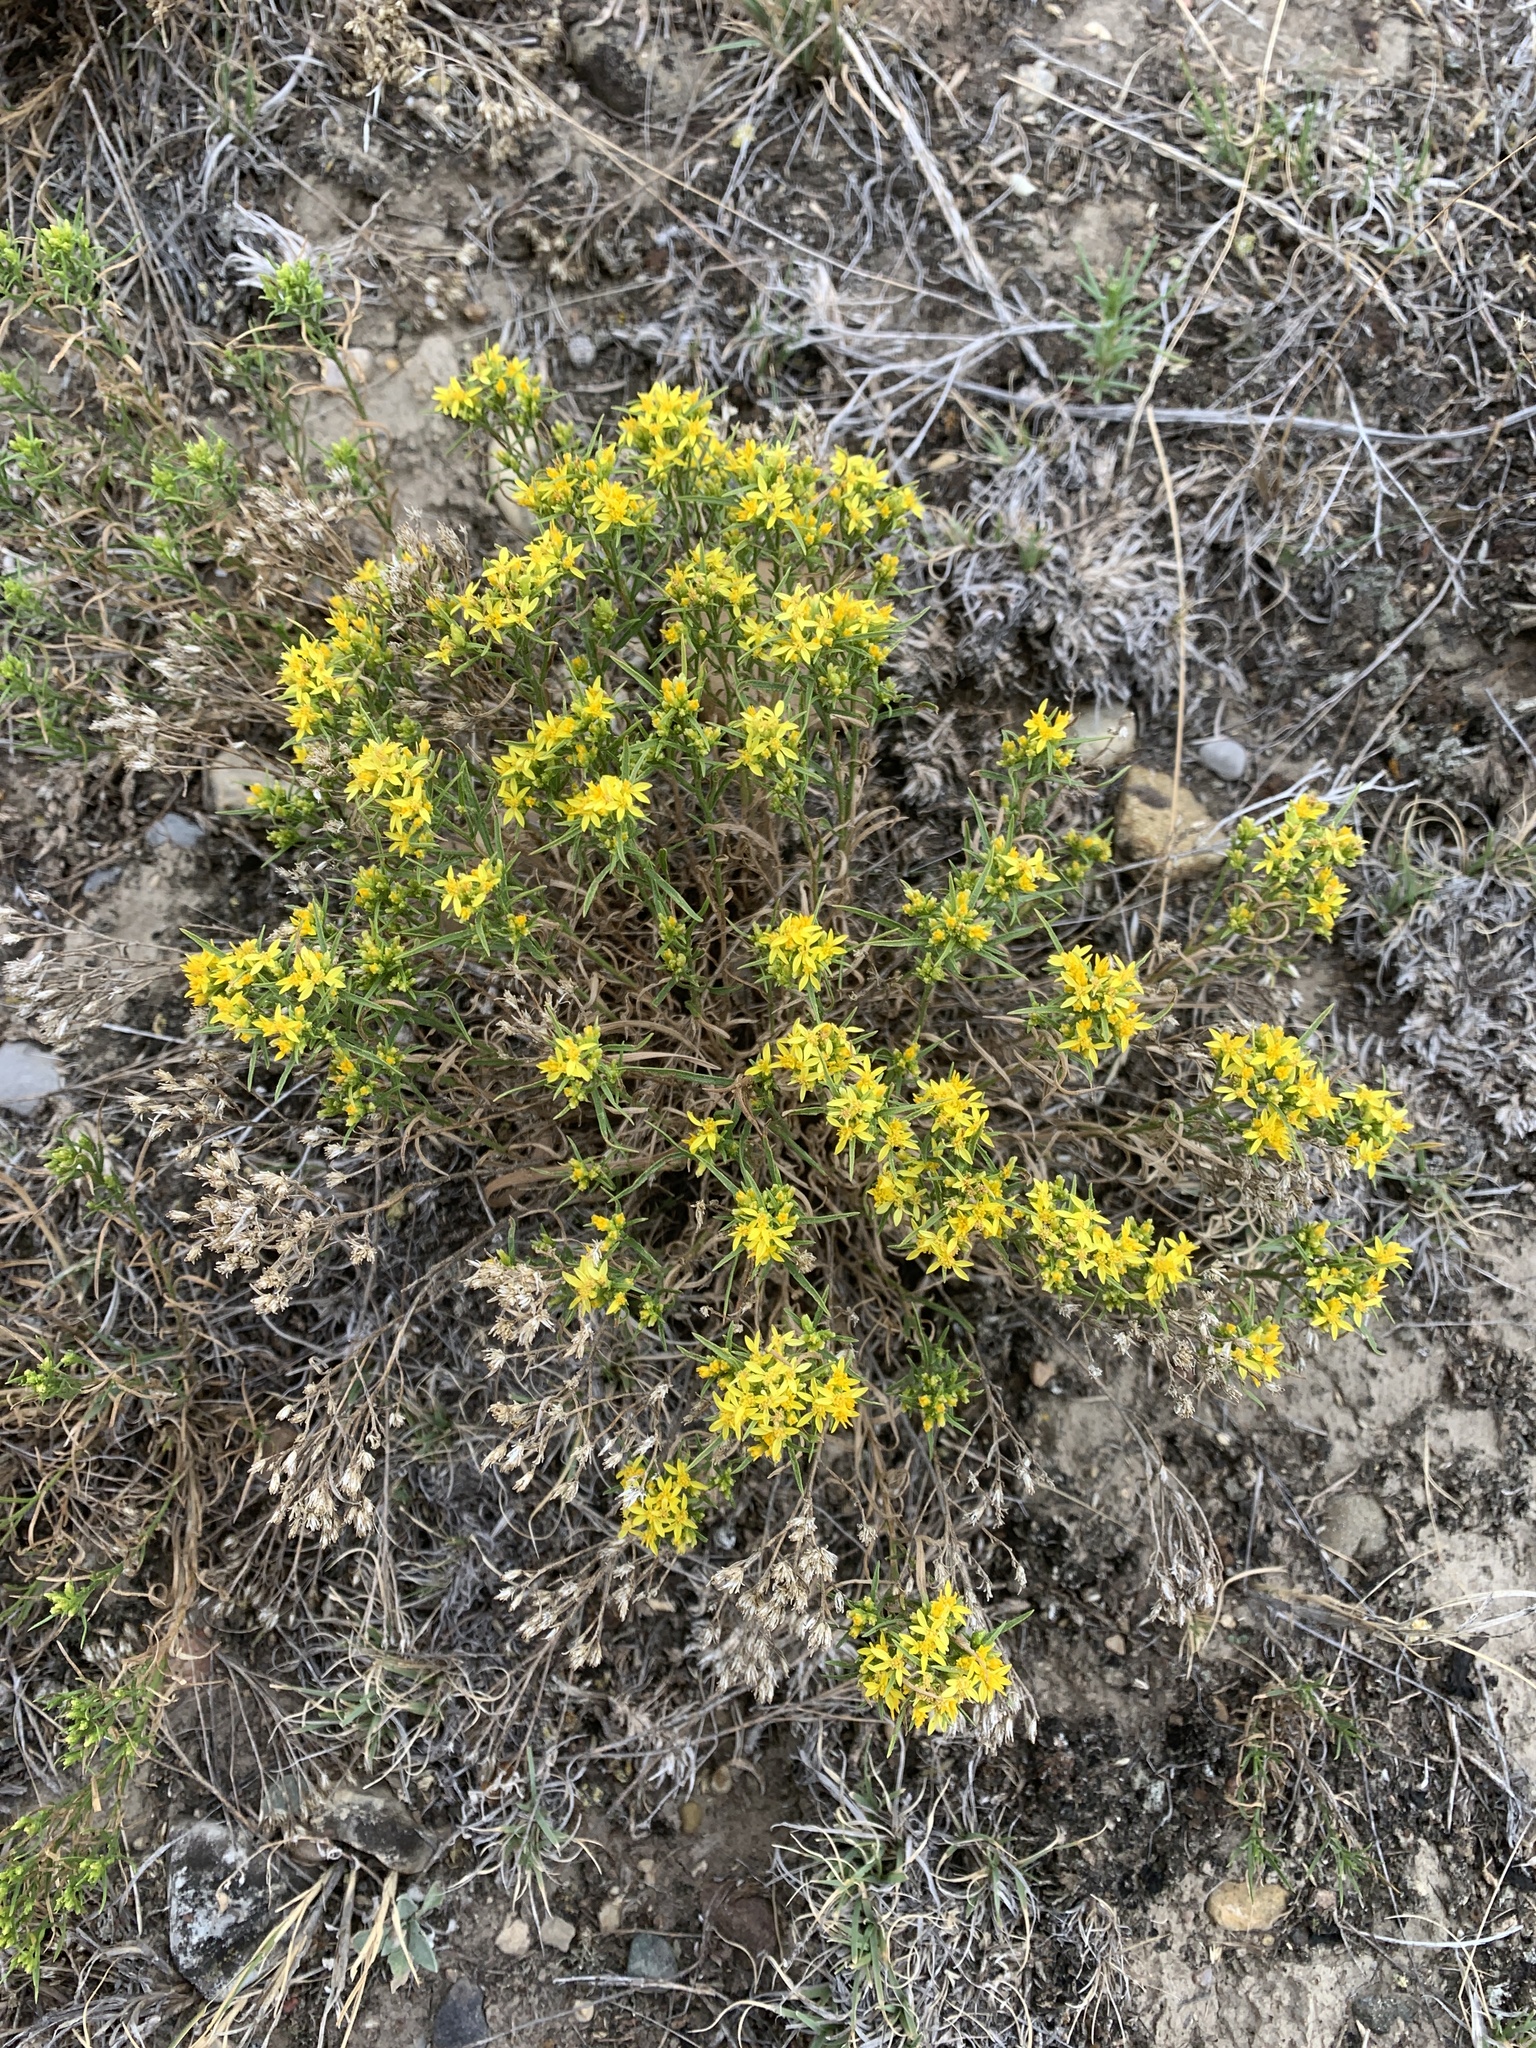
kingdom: Plantae
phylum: Tracheophyta
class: Magnoliopsida
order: Asterales
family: Asteraceae
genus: Gutierrezia
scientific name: Gutierrezia sarothrae
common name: Broom snakeweed
